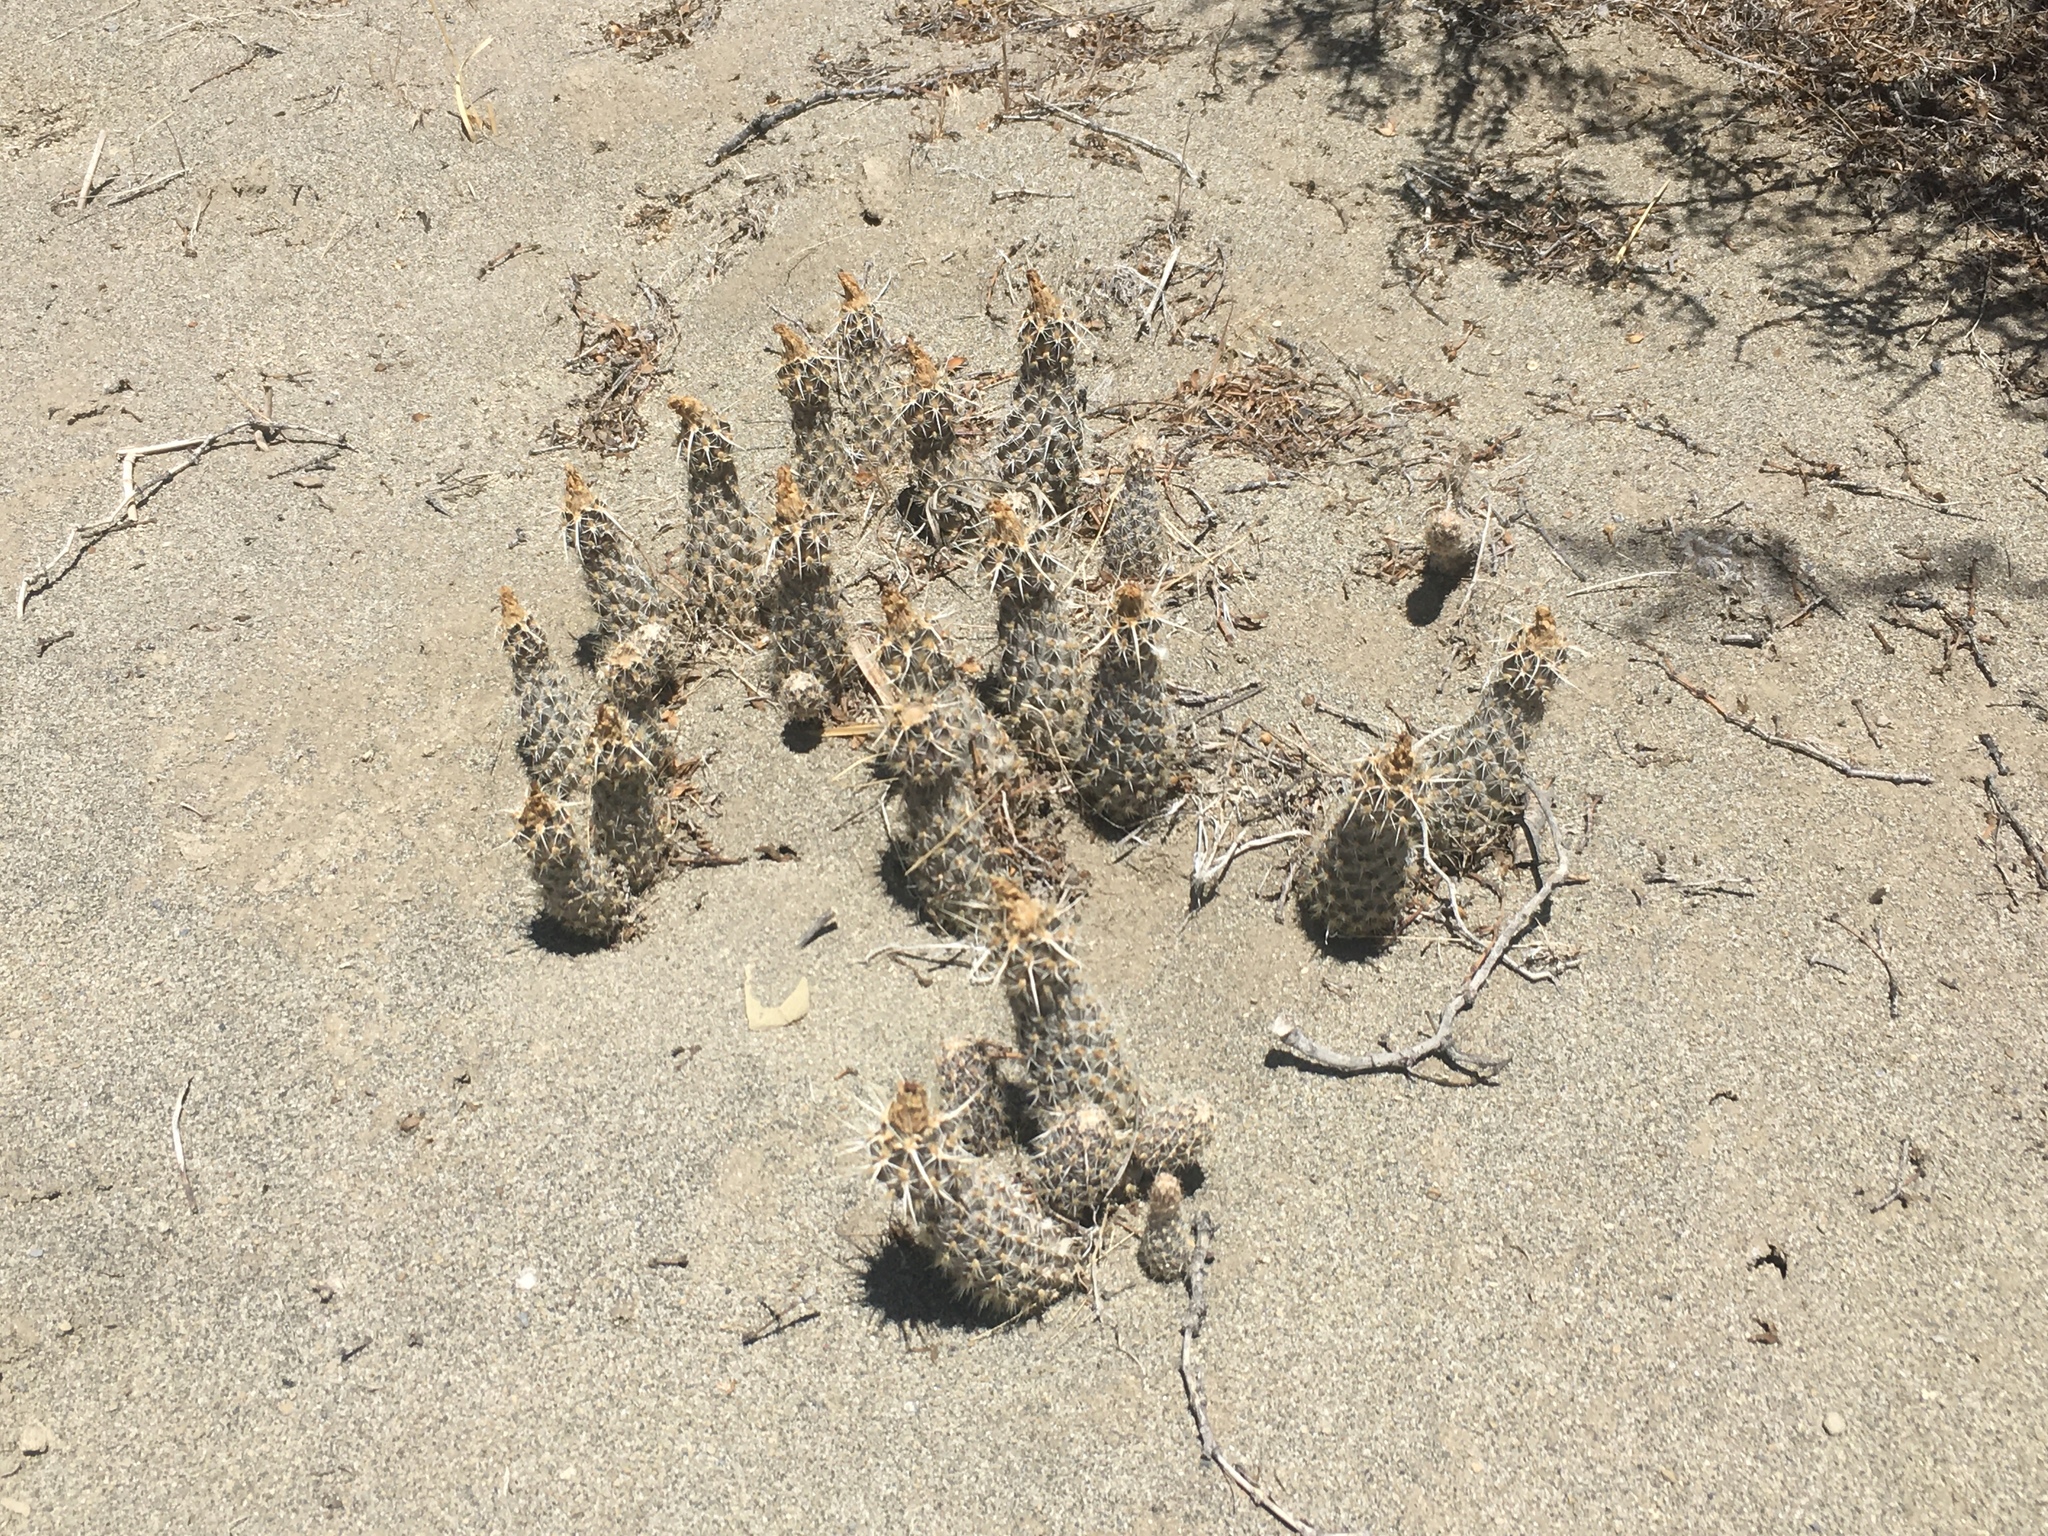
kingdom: Plantae
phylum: Tracheophyta
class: Magnoliopsida
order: Caryophyllales
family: Cactaceae
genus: Pterocactus
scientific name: Pterocactus fischeri
